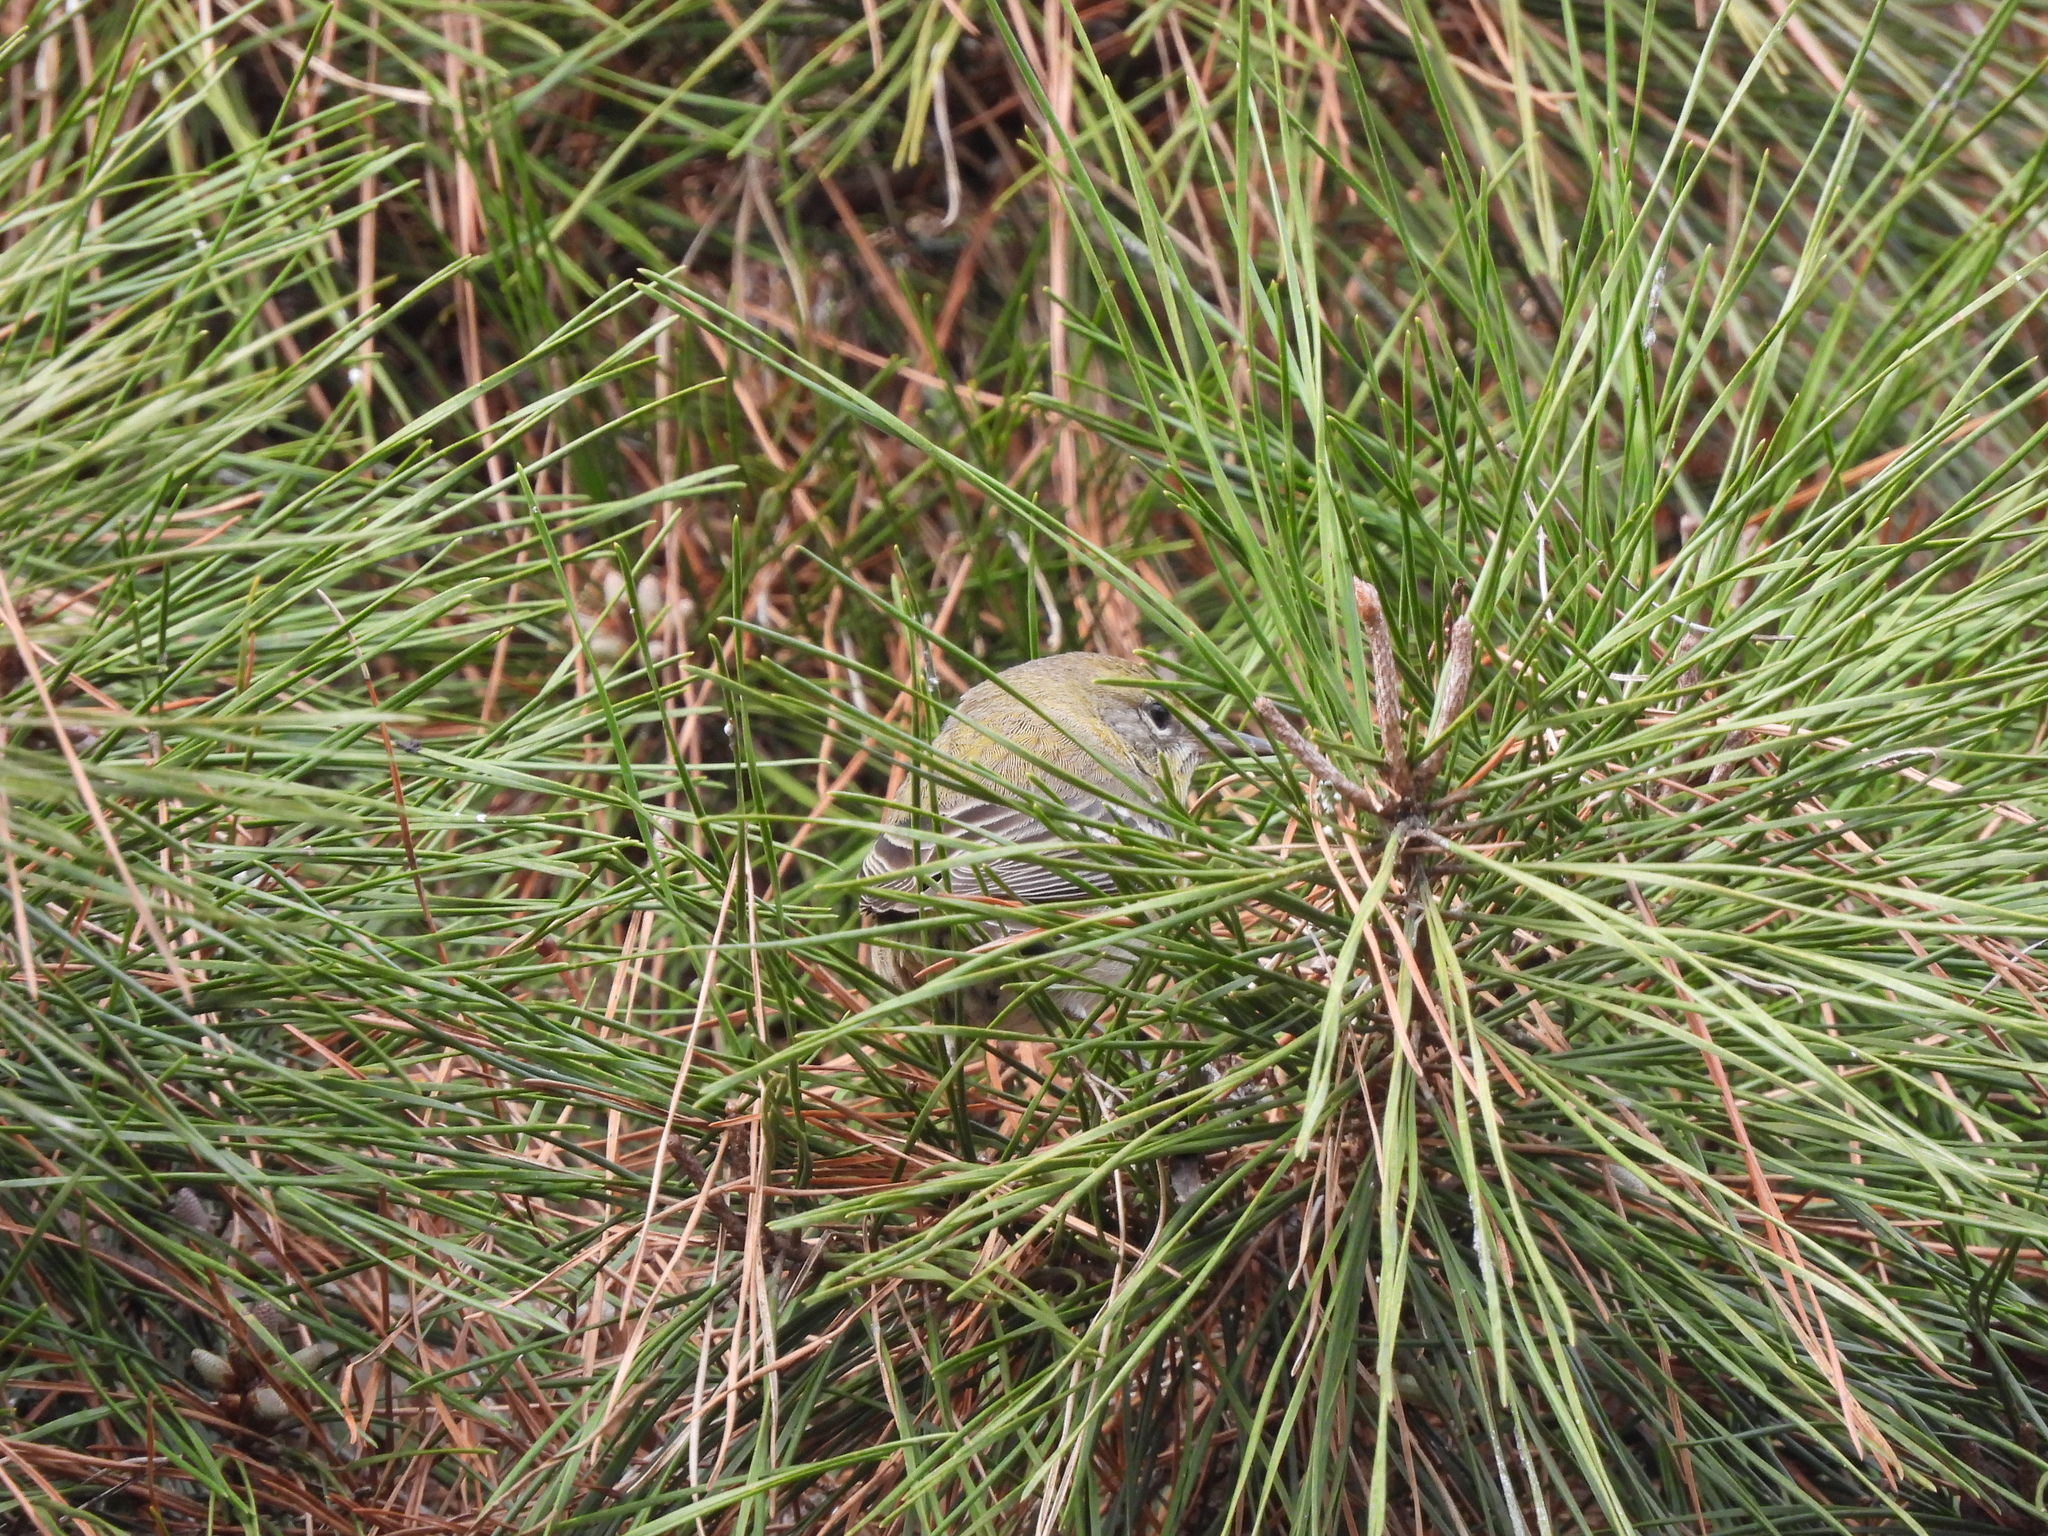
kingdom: Animalia
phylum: Chordata
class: Aves
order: Passeriformes
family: Parulidae
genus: Setophaga
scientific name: Setophaga pinus
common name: Pine warbler
